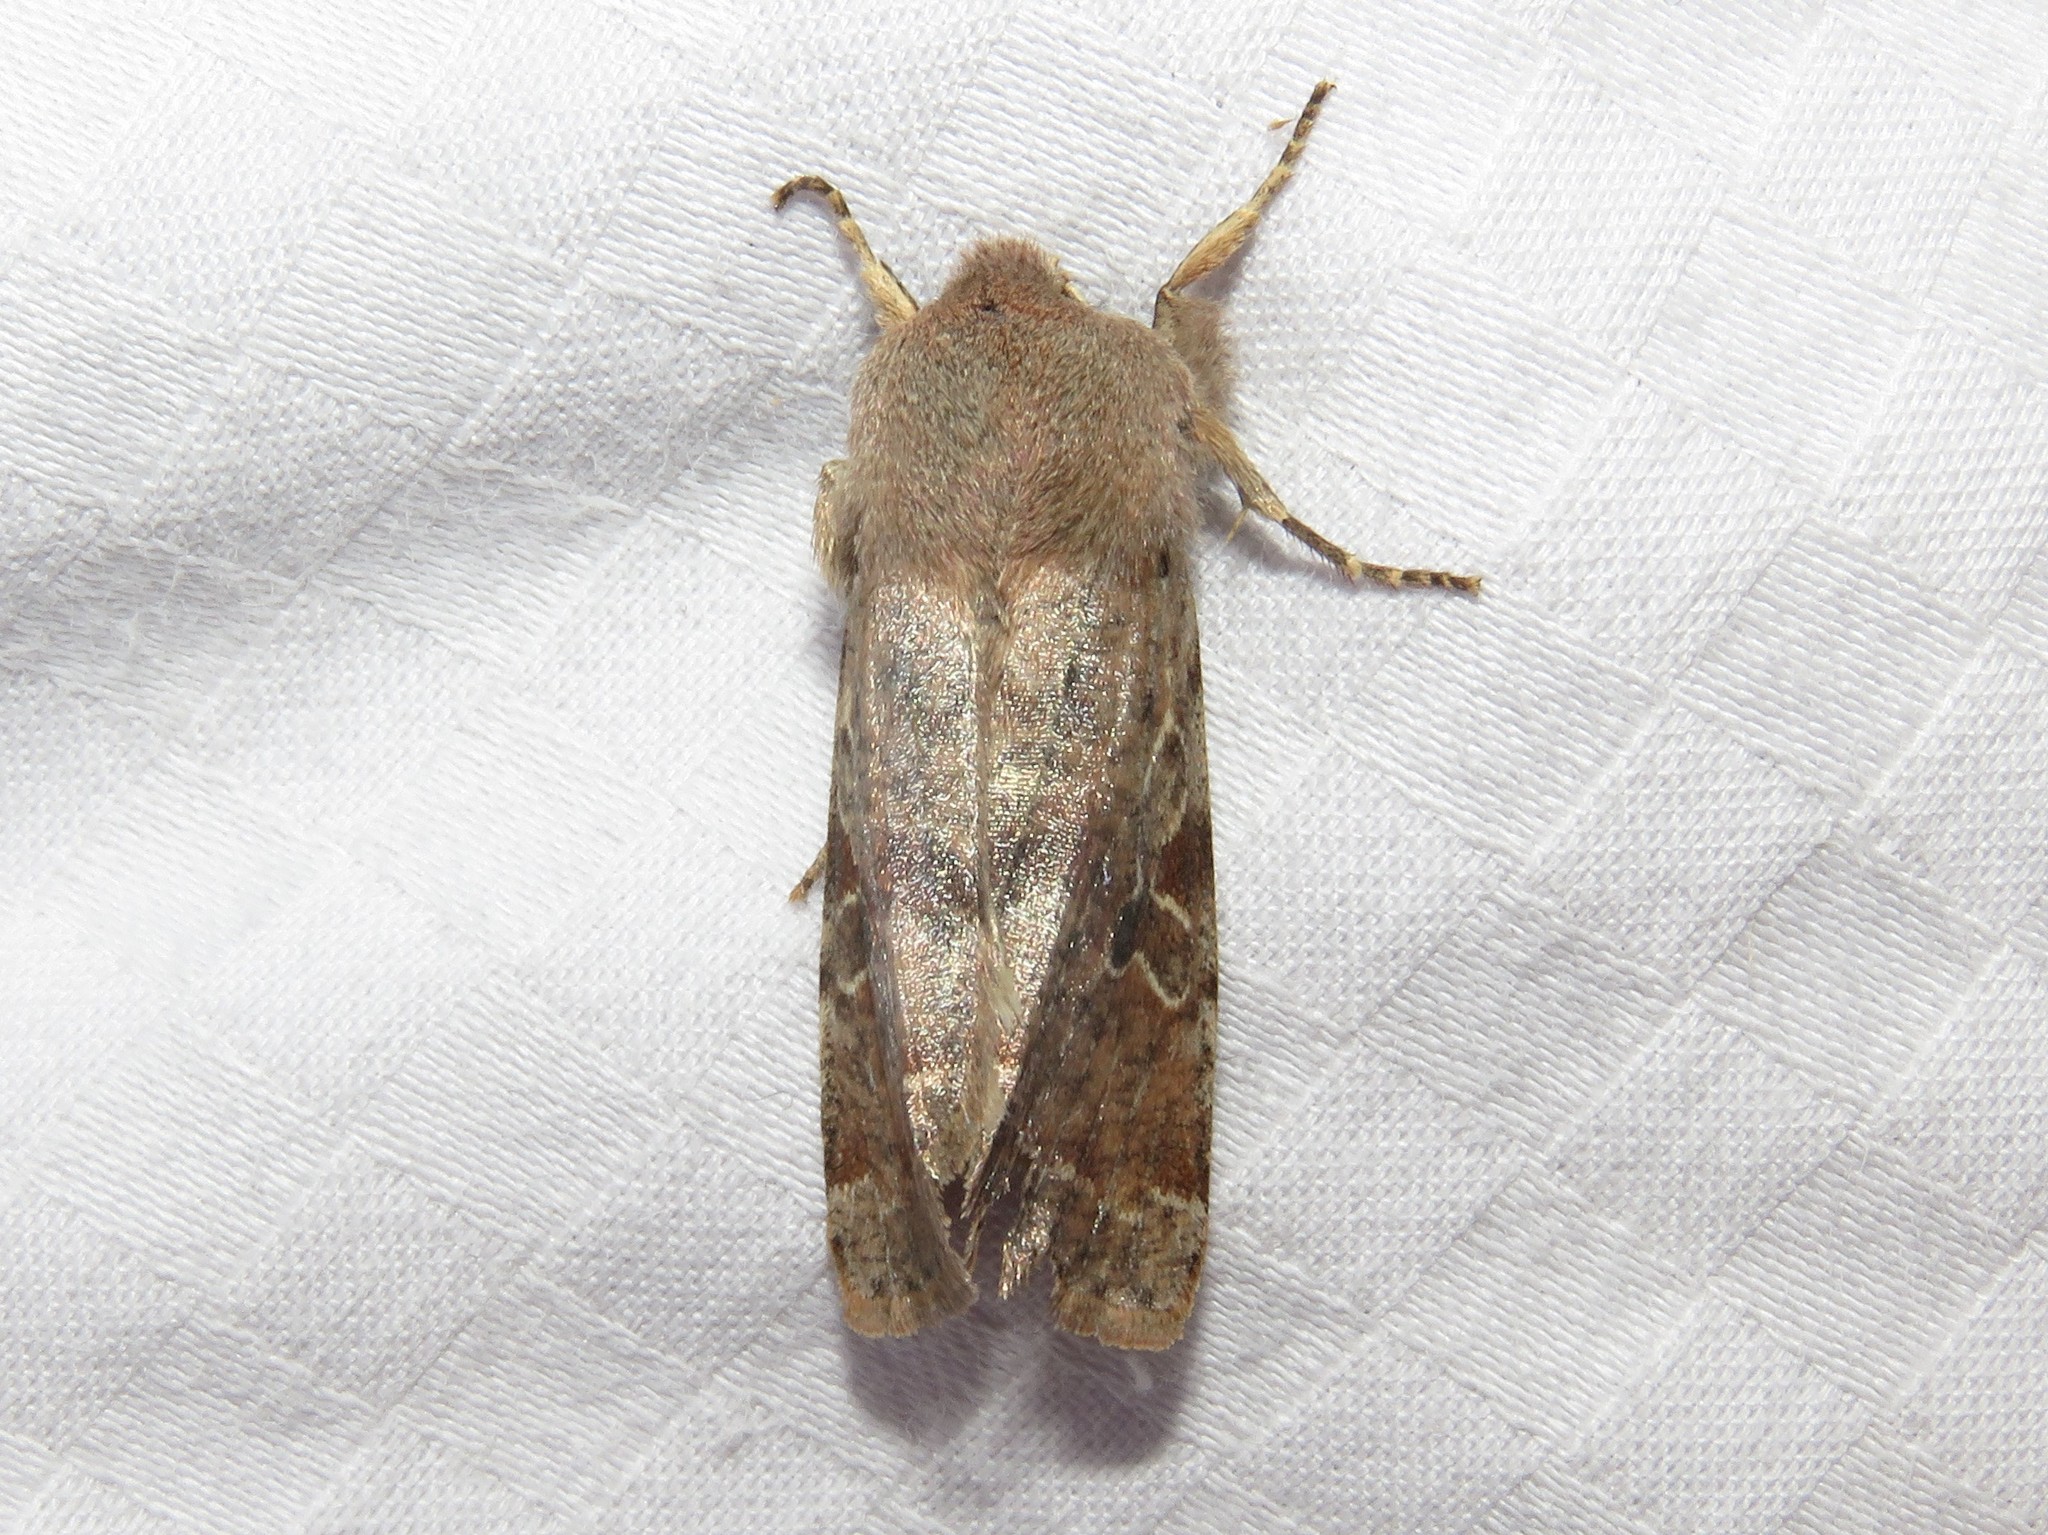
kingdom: Animalia
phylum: Arthropoda
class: Insecta
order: Lepidoptera
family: Noctuidae
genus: Orthosia
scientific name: Orthosia hibisci
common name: Green fruitworm
